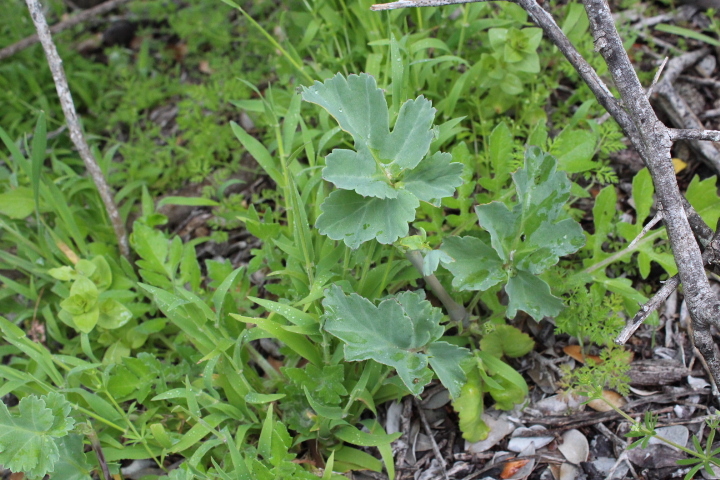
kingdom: Plantae
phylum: Tracheophyta
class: Magnoliopsida
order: Geraniales
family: Geraniaceae
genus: Pelargonium
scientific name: Pelargonium gibbosum
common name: Gouty geranium
